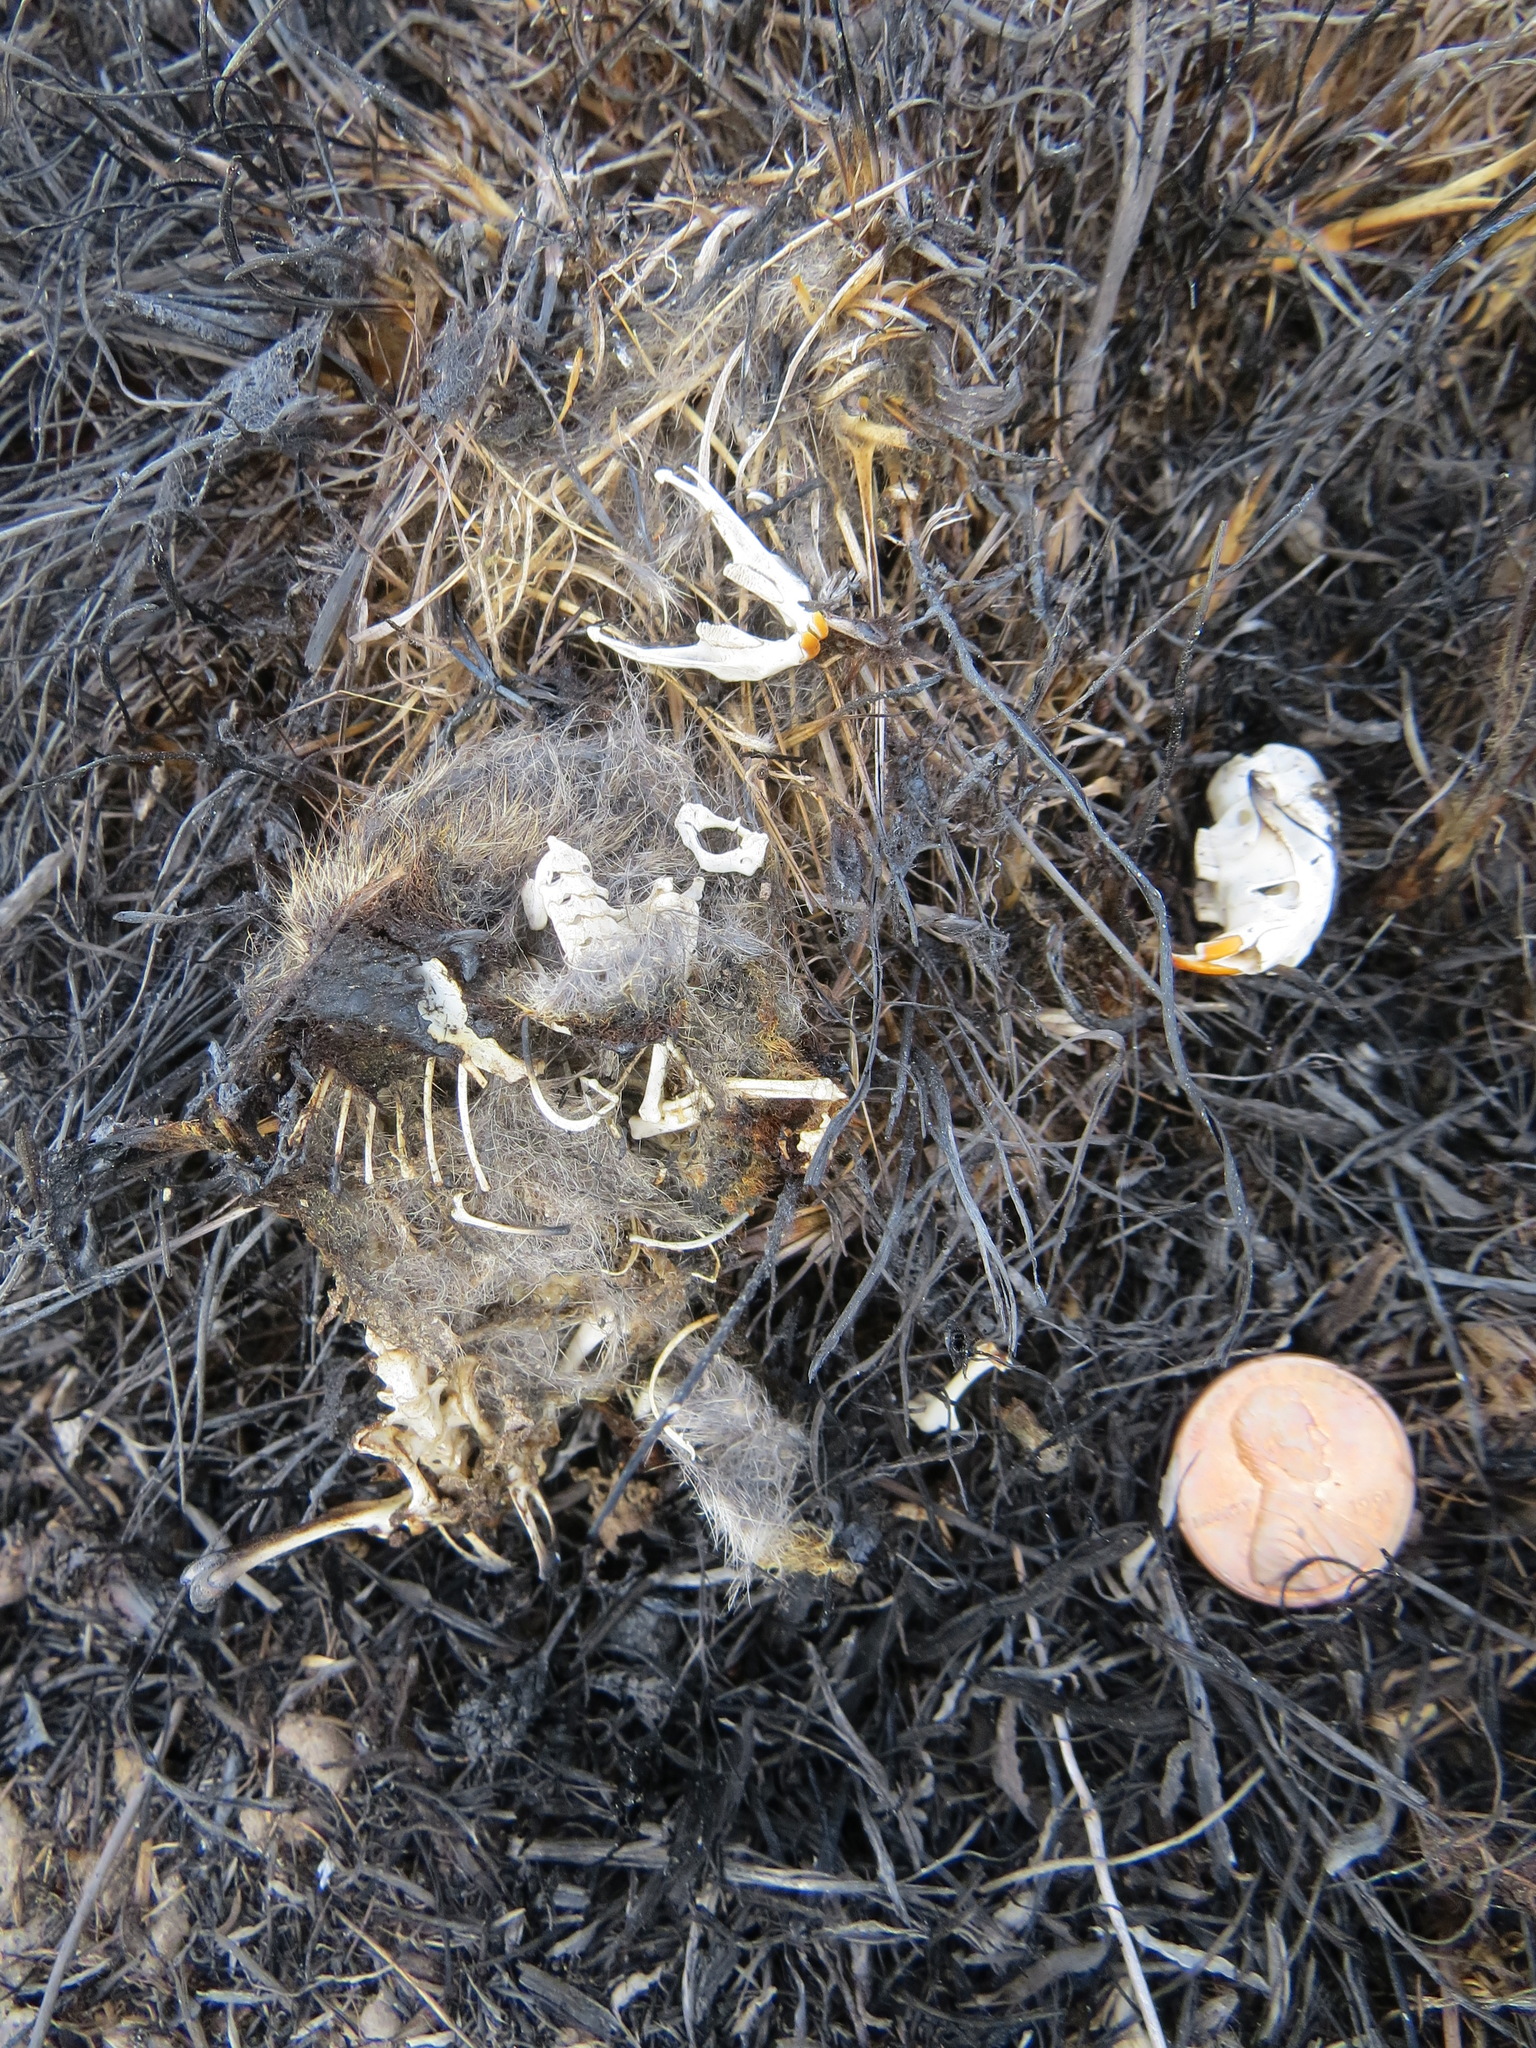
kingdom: Animalia
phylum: Chordata
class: Mammalia
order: Rodentia
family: Cricetidae
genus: Microtus
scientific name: Microtus californicus
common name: California vole
